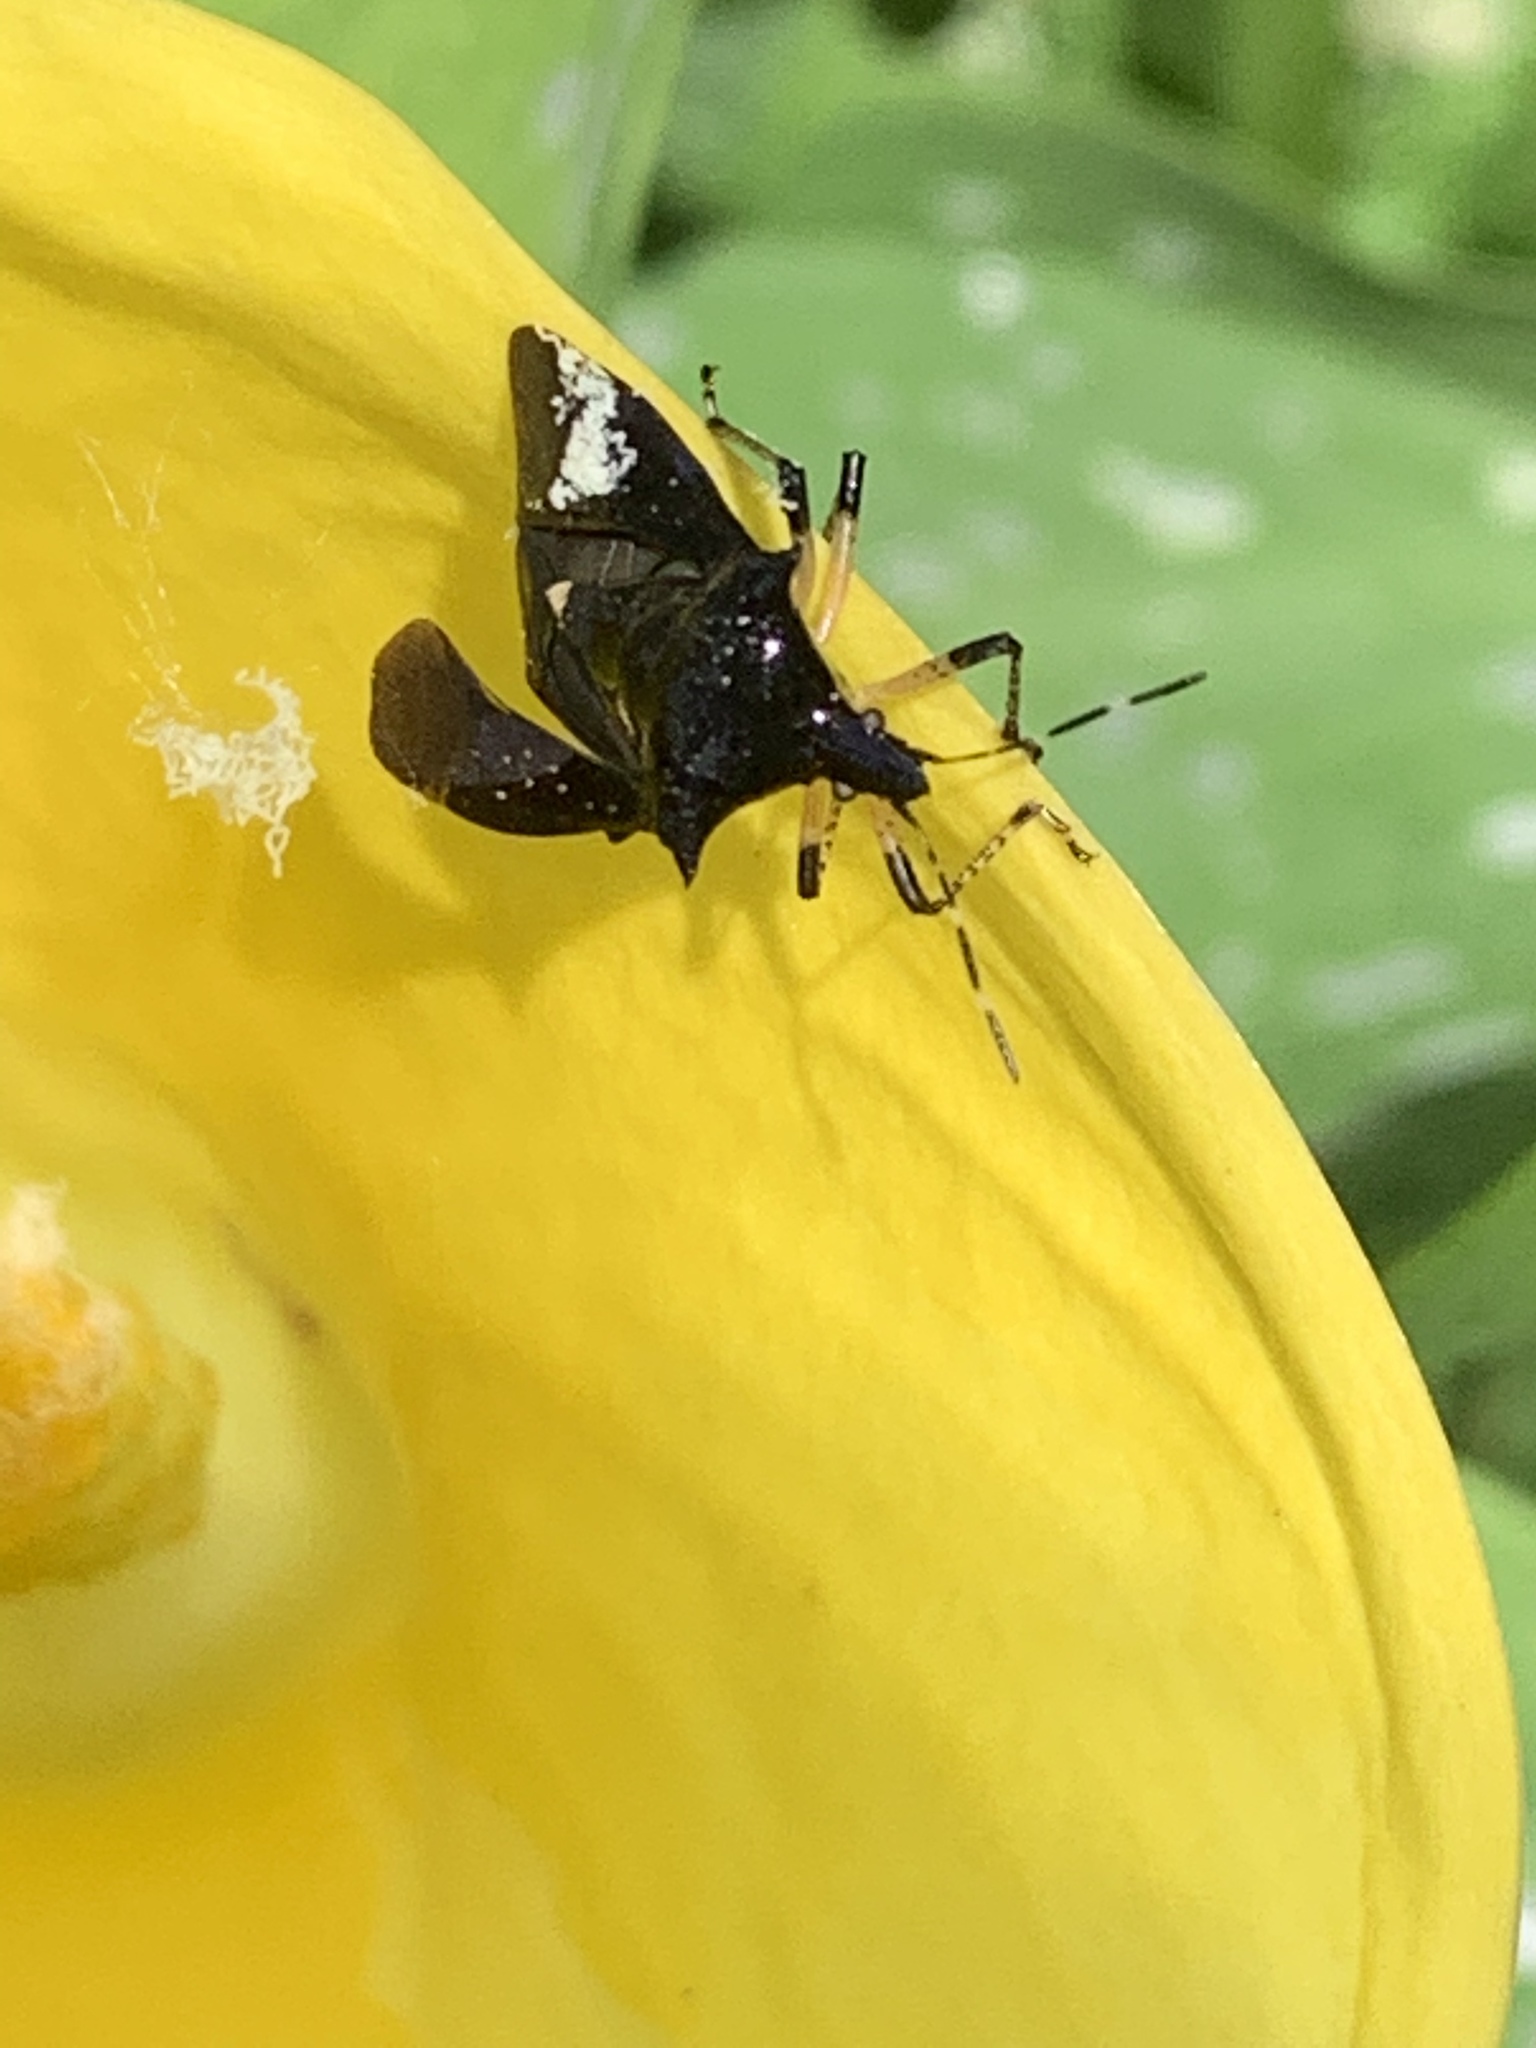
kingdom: Animalia
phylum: Arthropoda
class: Insecta
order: Hemiptera
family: Pentatomidae
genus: Proxys
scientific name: Proxys punctulatus
